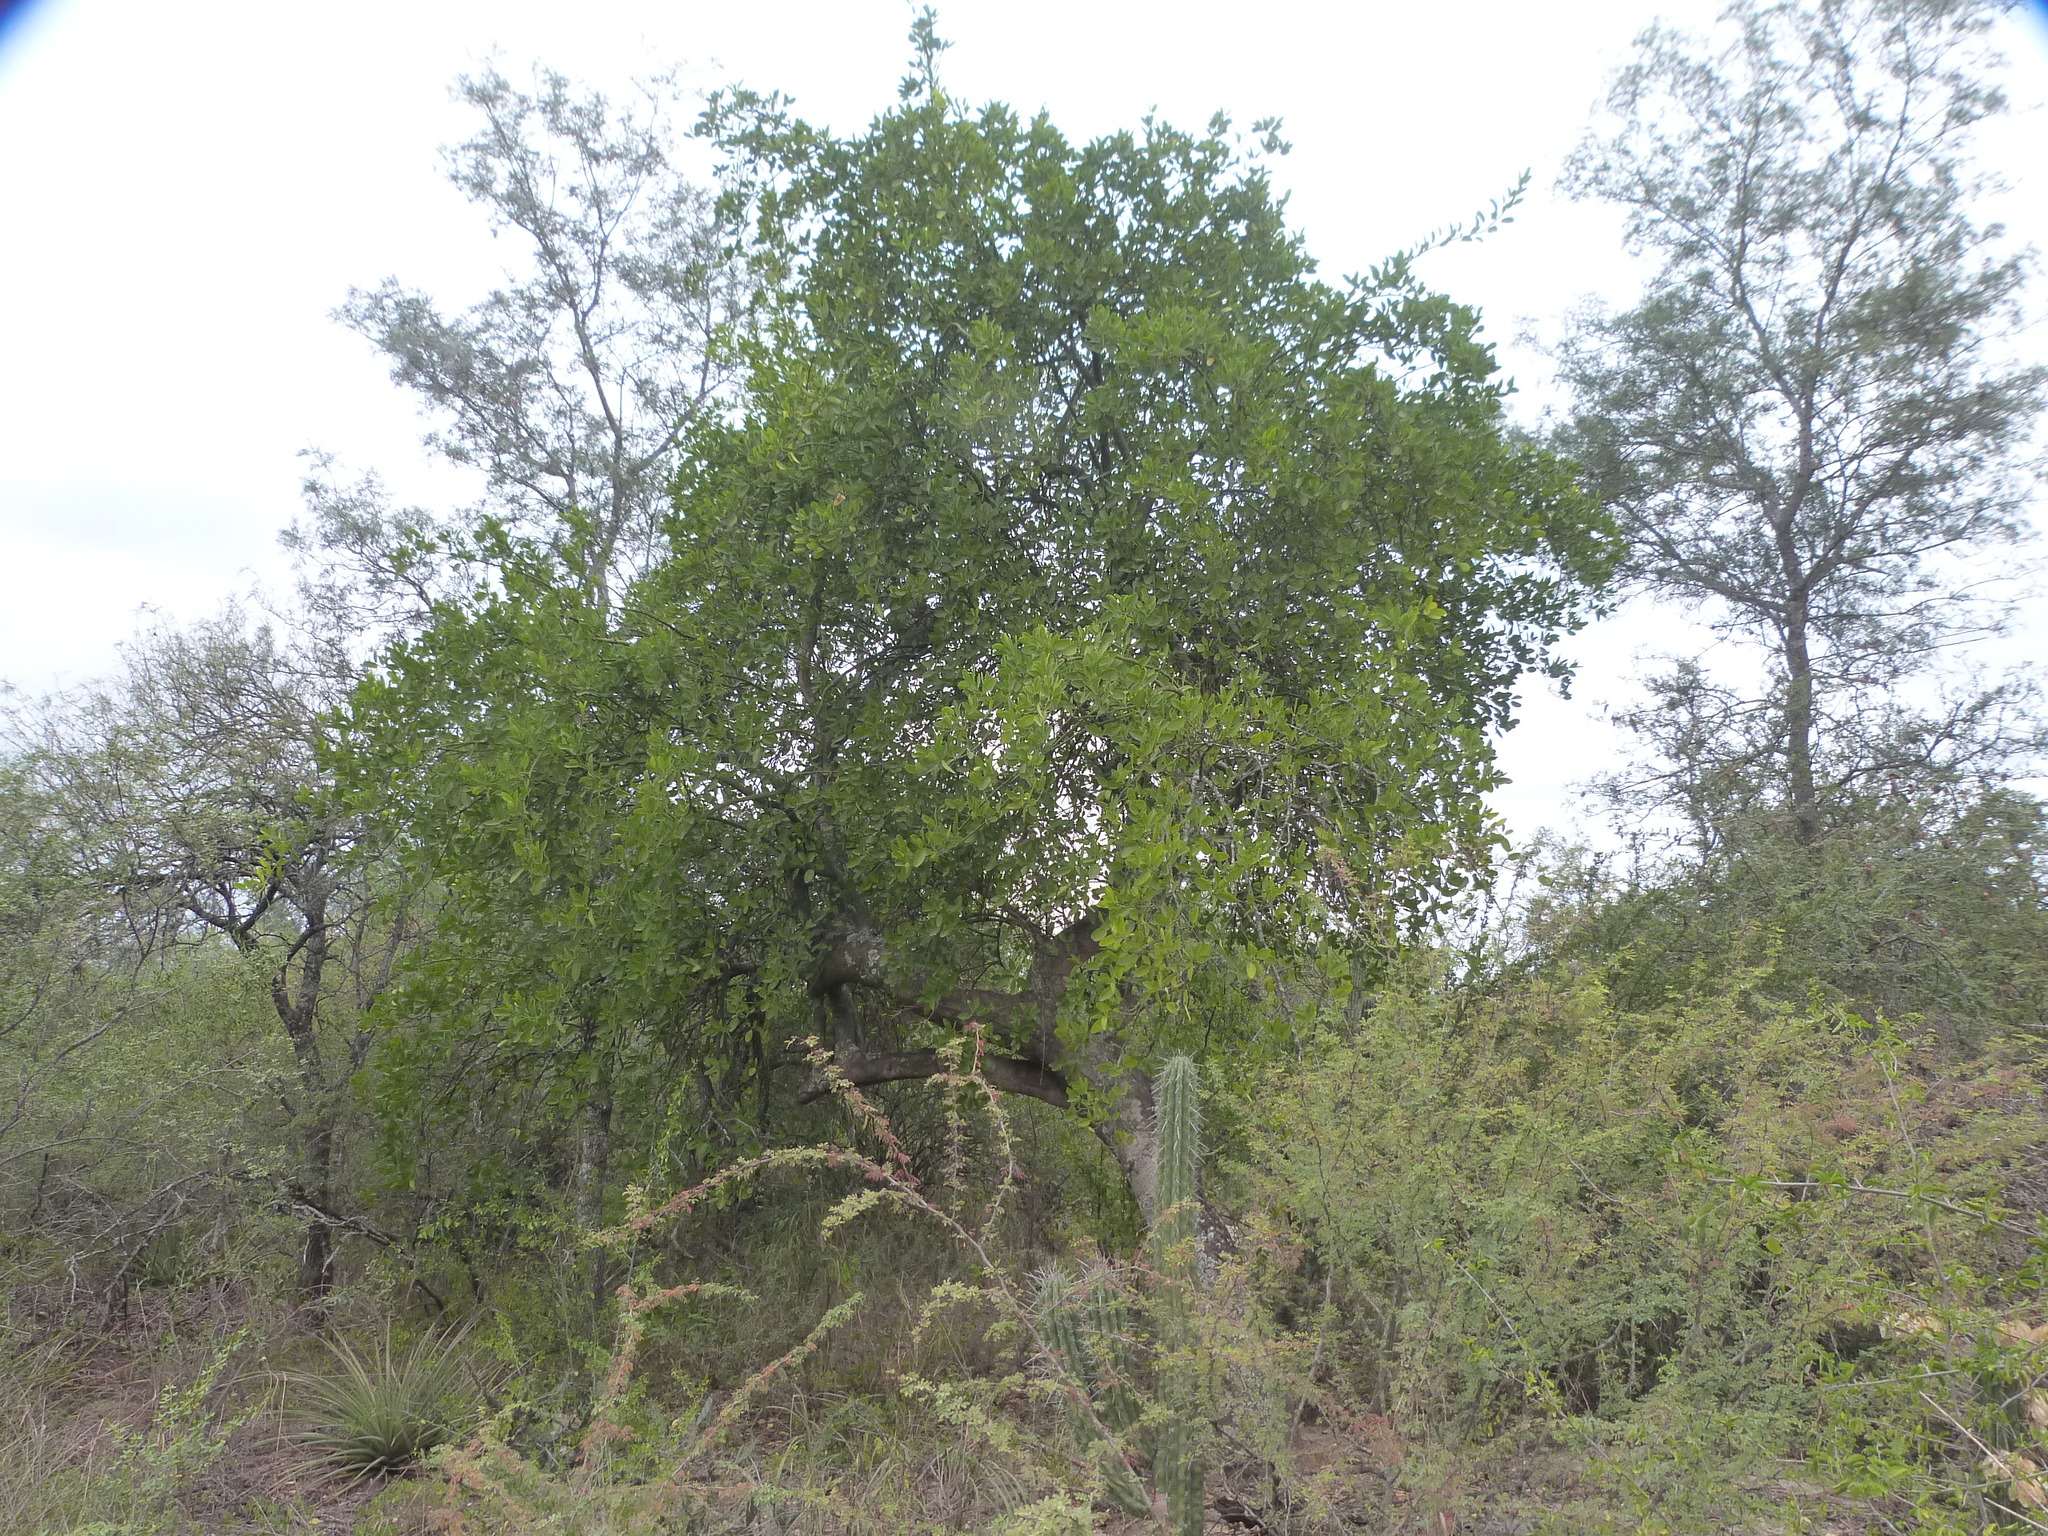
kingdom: Plantae
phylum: Tracheophyta
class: Magnoliopsida
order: Brassicales
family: Capparaceae
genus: Anisocapparis
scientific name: Anisocapparis speciosa
